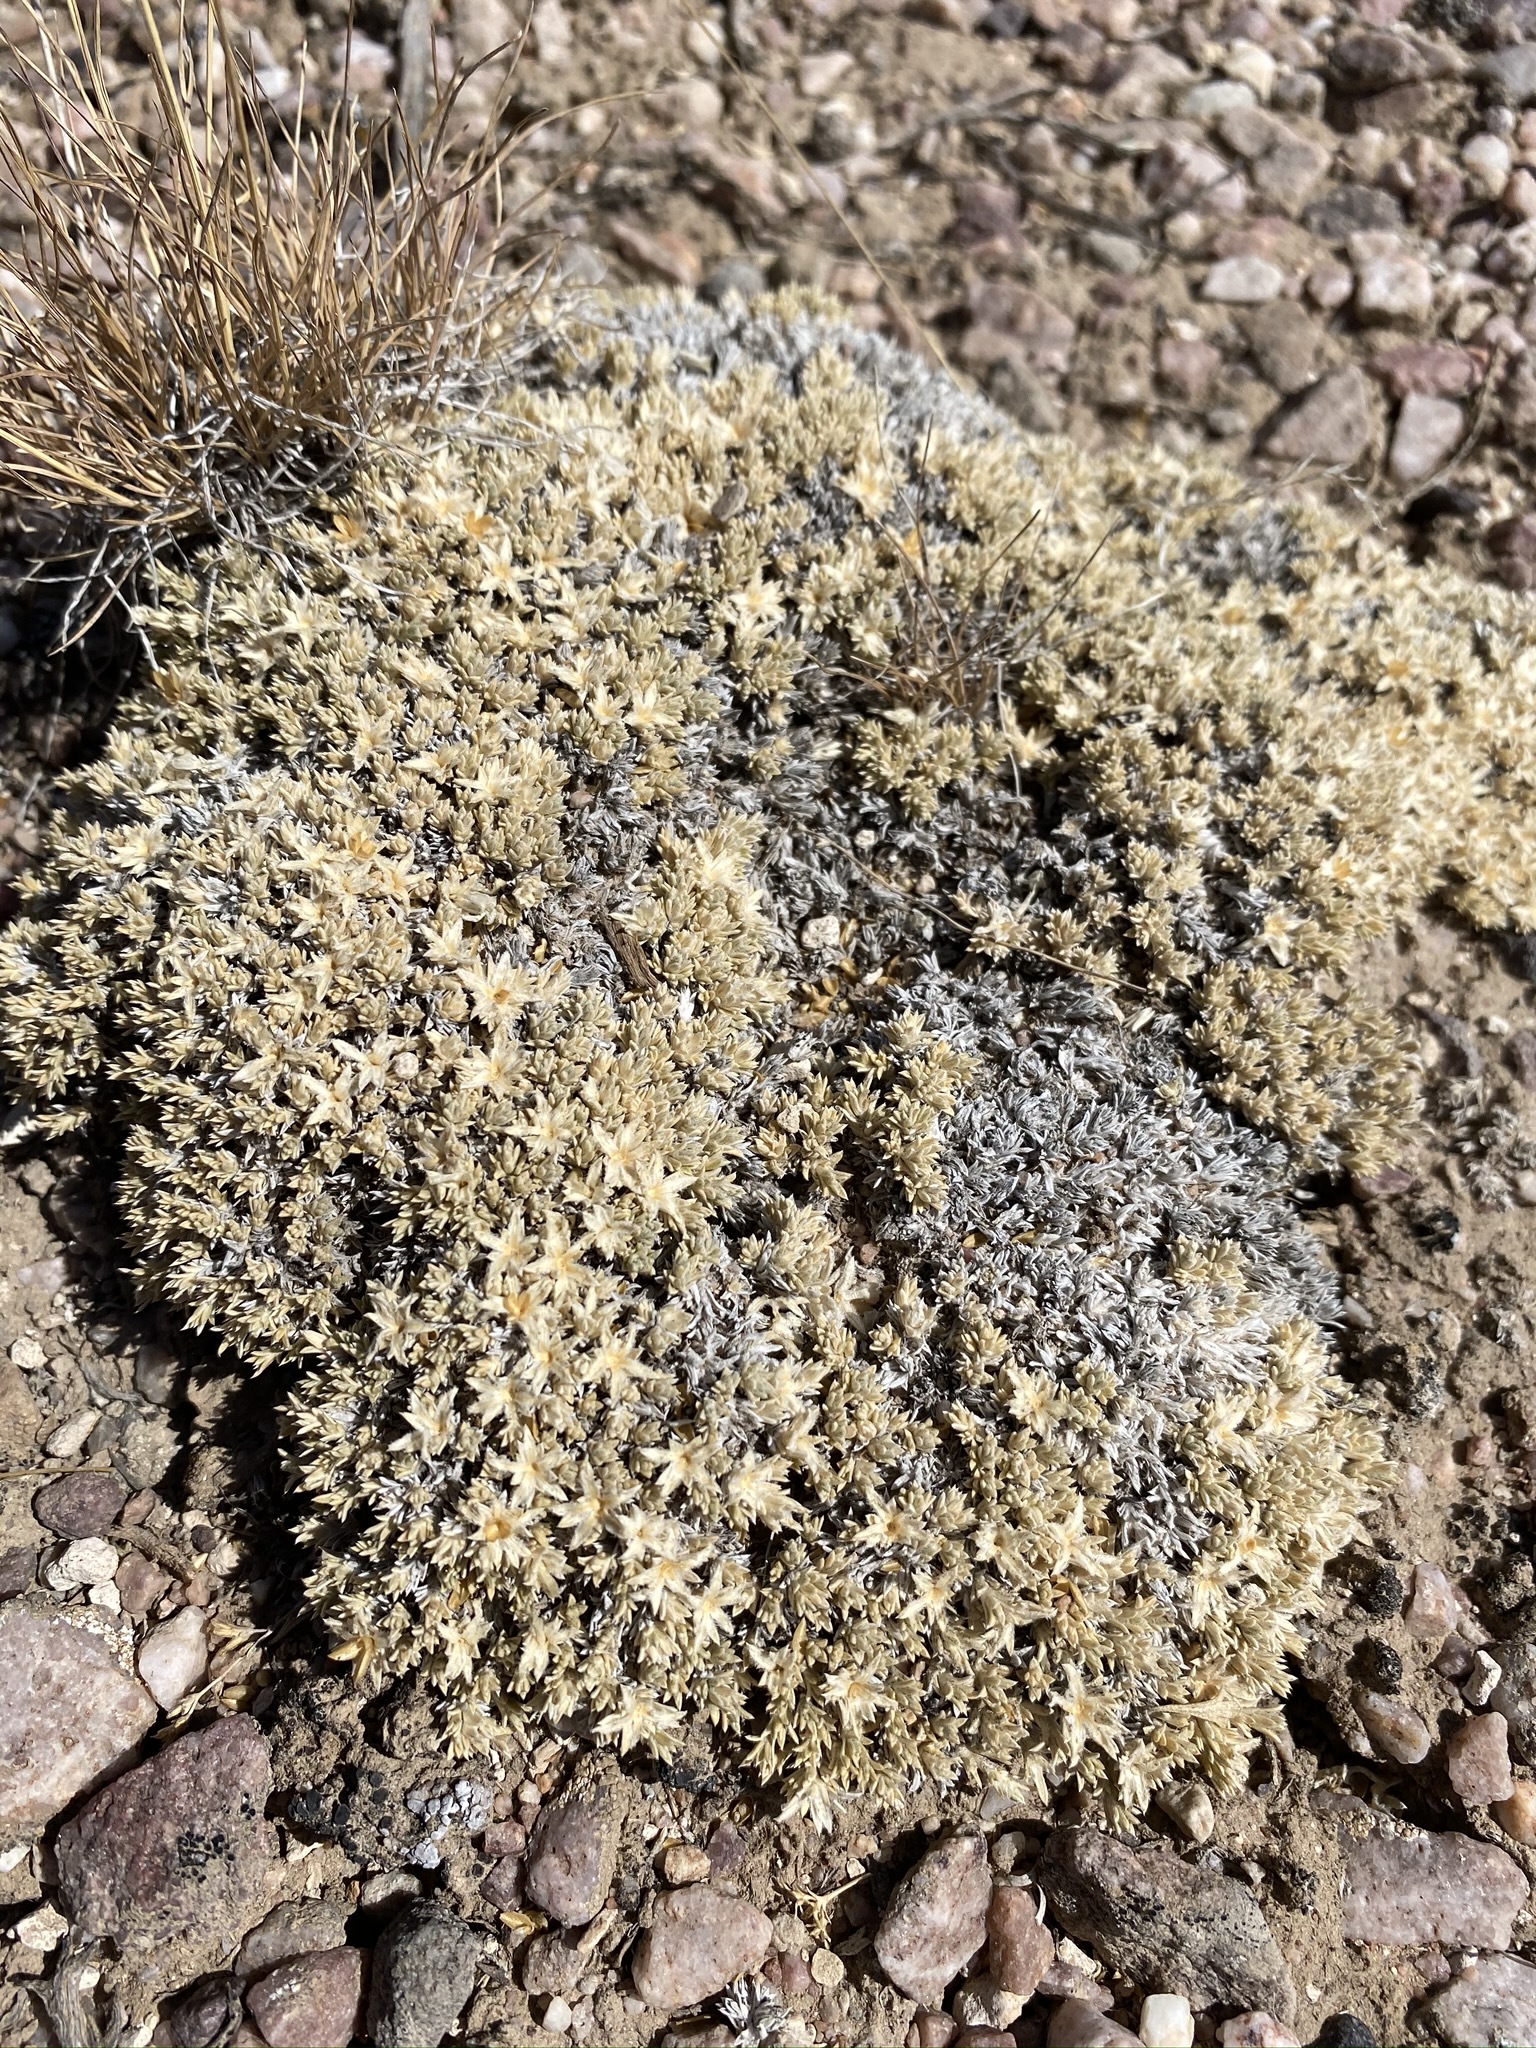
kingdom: Plantae
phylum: Tracheophyta
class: Magnoliopsida
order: Ericales
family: Polemoniaceae
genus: Phlox
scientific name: Phlox griseola
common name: Gray-leaf phlox
